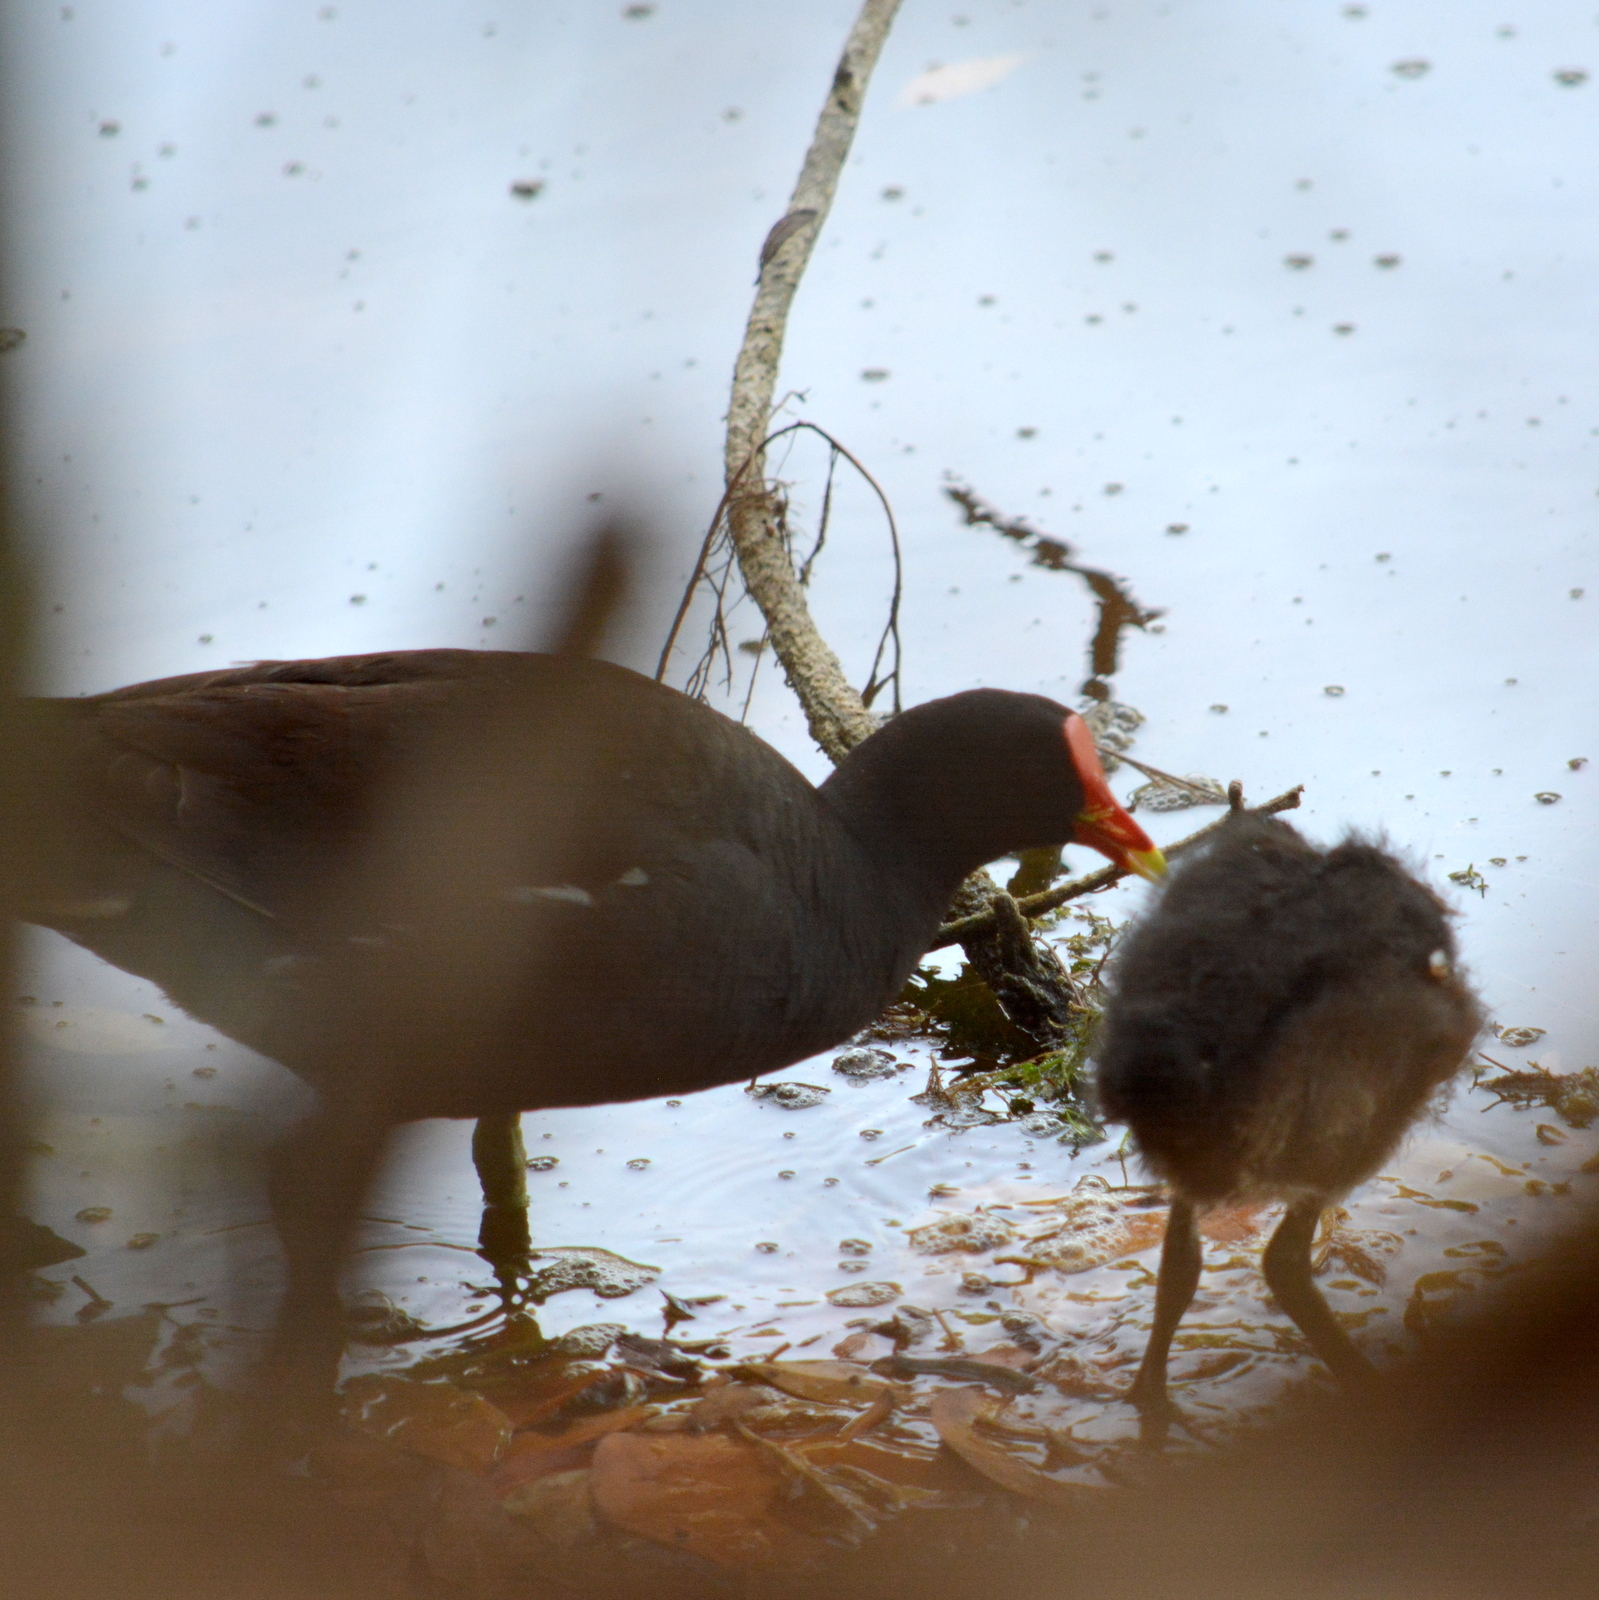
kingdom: Animalia
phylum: Chordata
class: Aves
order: Gruiformes
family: Rallidae
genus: Gallinula
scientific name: Gallinula chloropus
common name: Common moorhen
